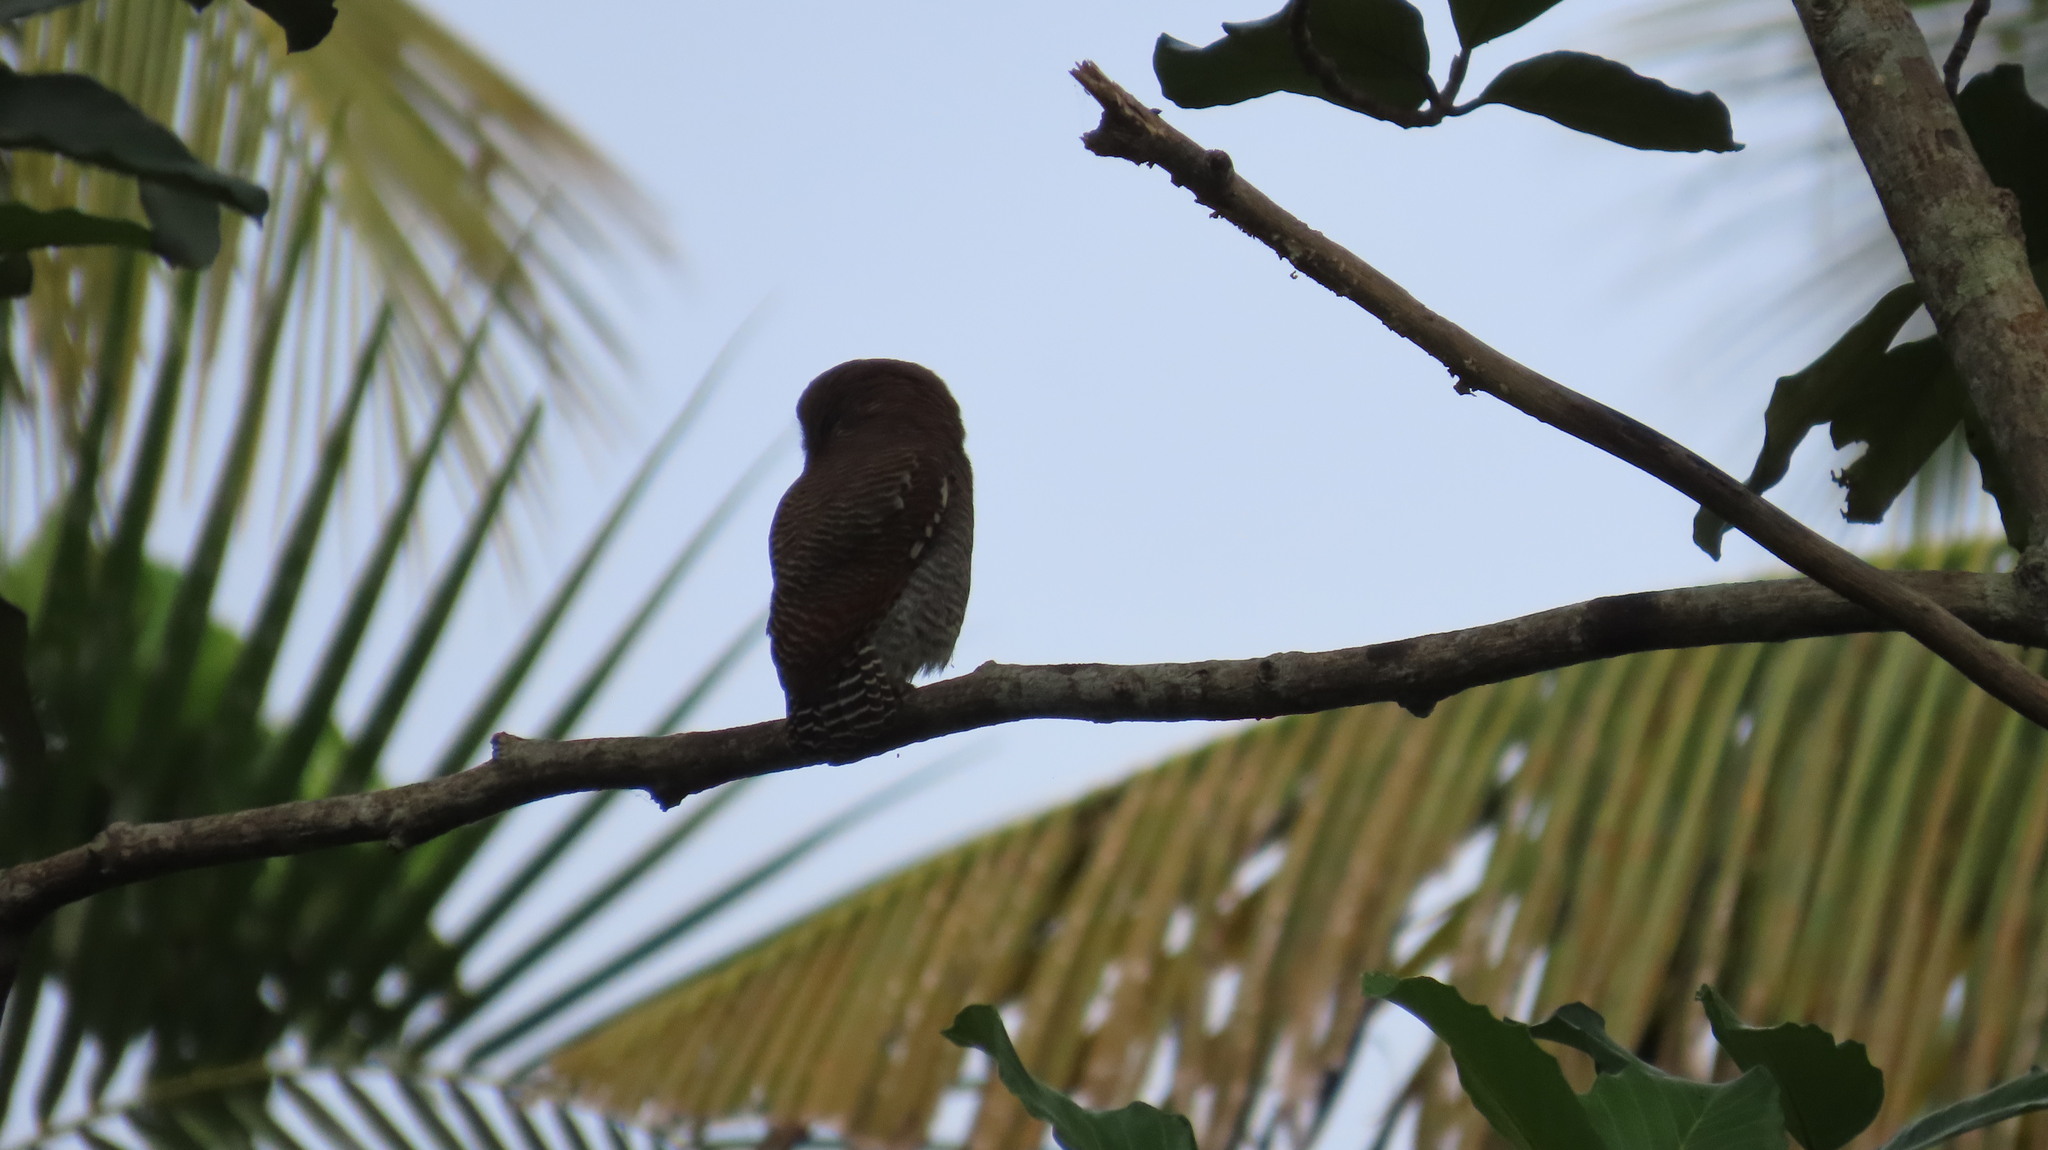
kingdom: Animalia
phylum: Chordata
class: Aves
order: Strigiformes
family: Strigidae
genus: Glaucidium
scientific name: Glaucidium radiatum
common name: Jungle owlet
